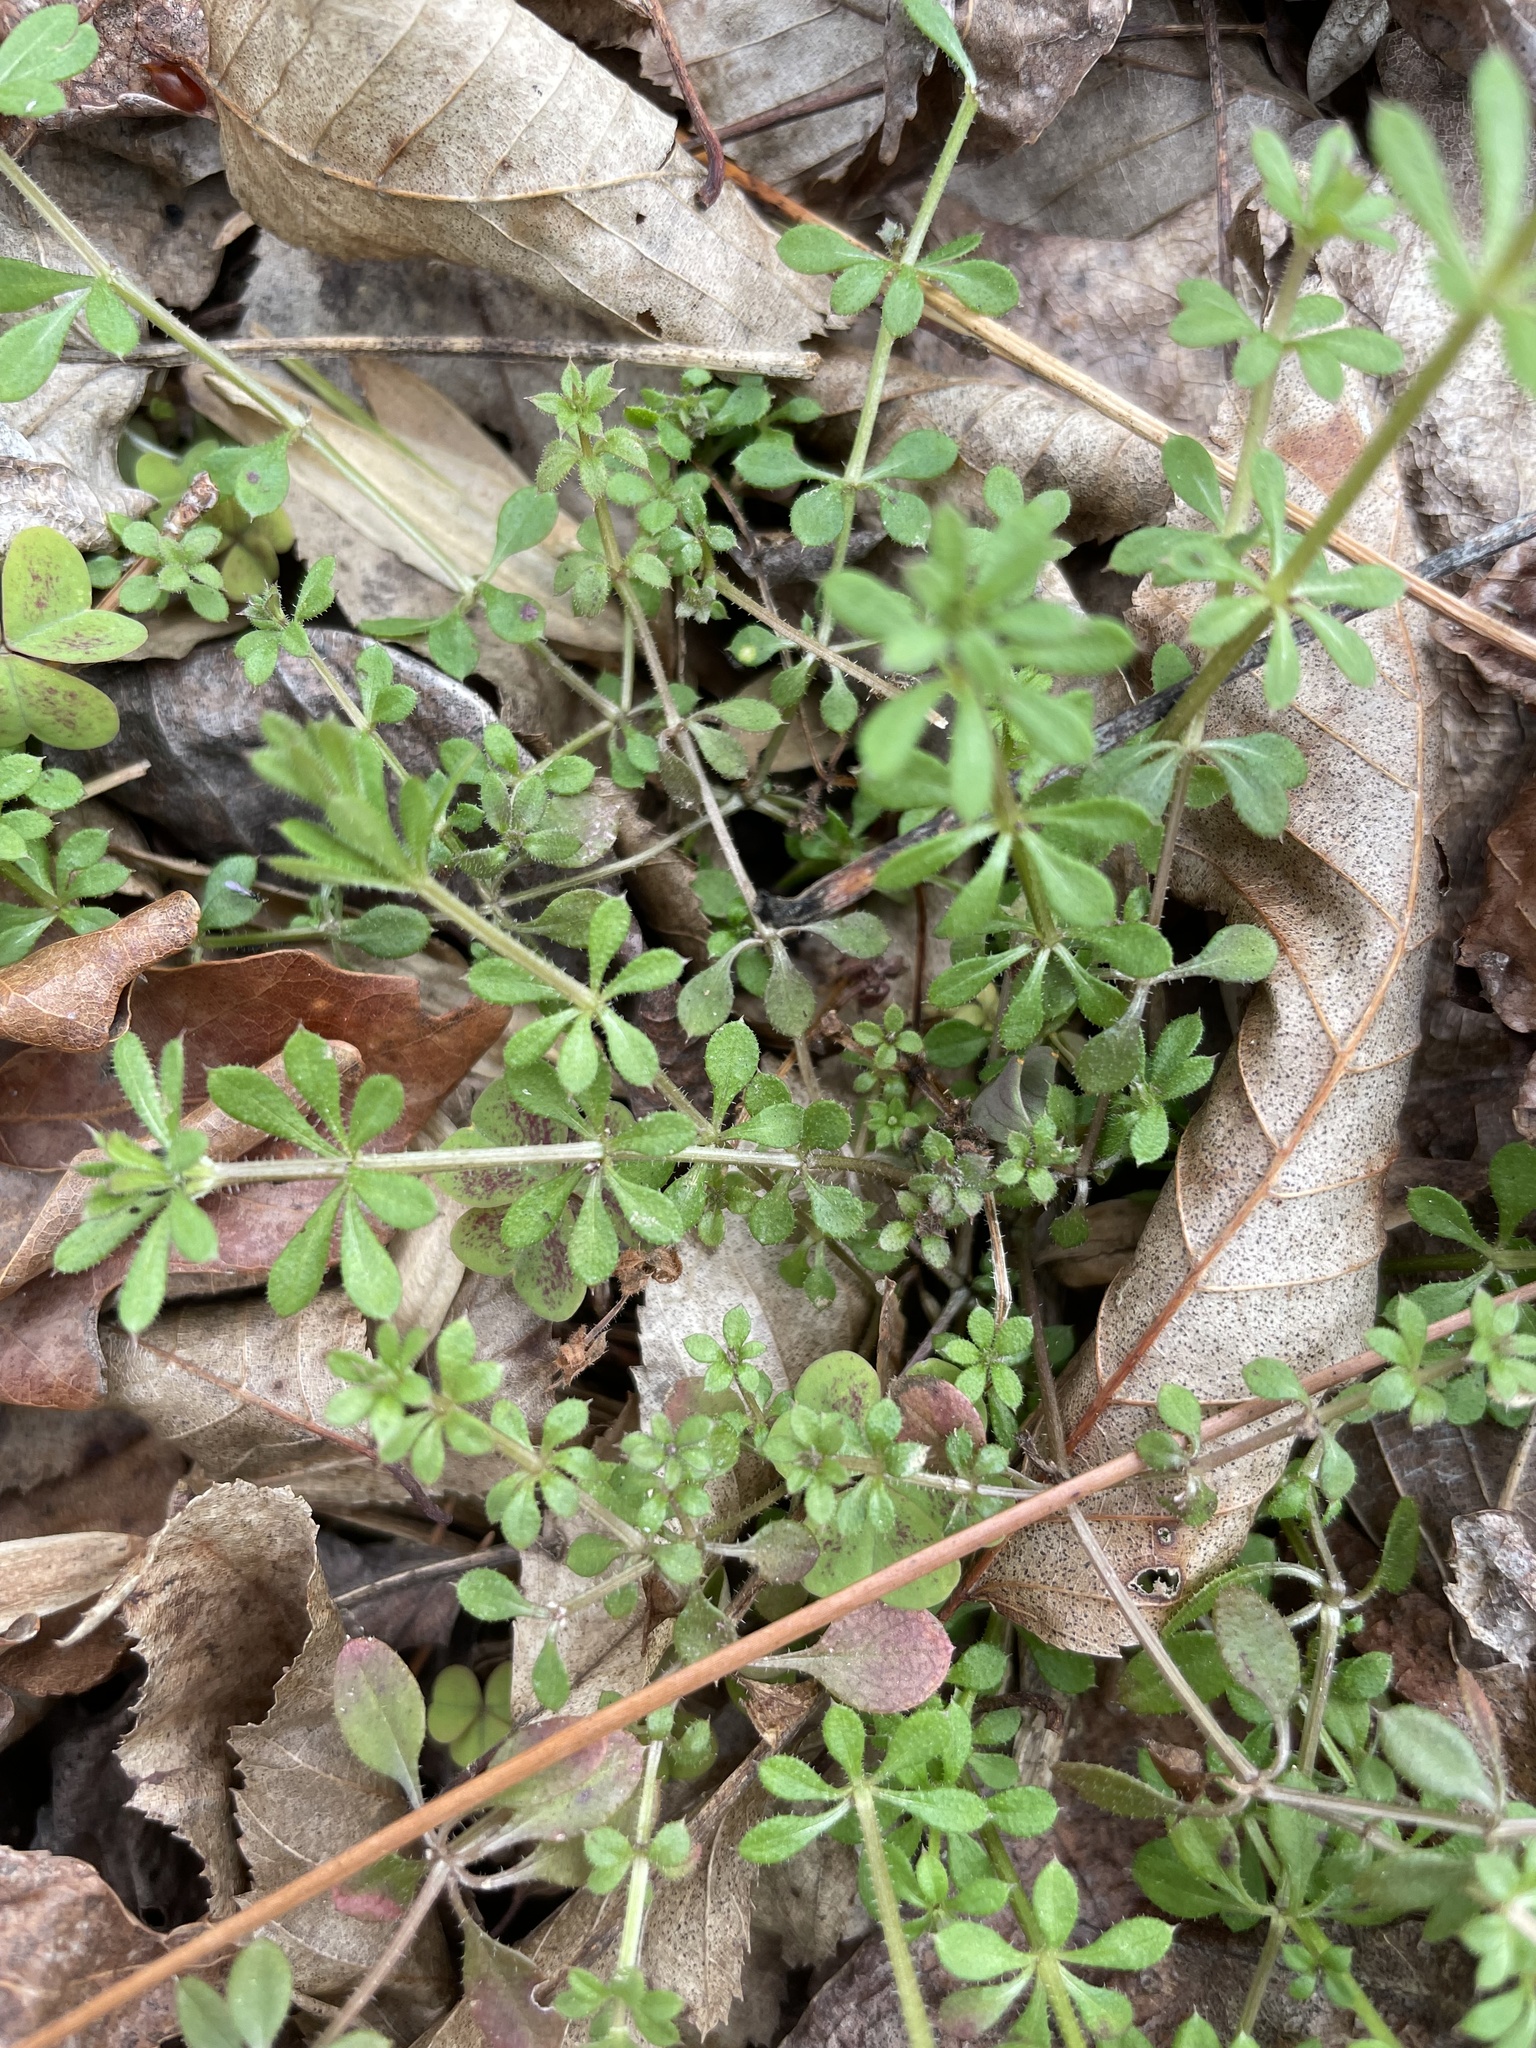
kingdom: Plantae
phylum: Tracheophyta
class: Magnoliopsida
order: Gentianales
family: Rubiaceae
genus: Galium
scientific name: Galium aparine
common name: Cleavers
